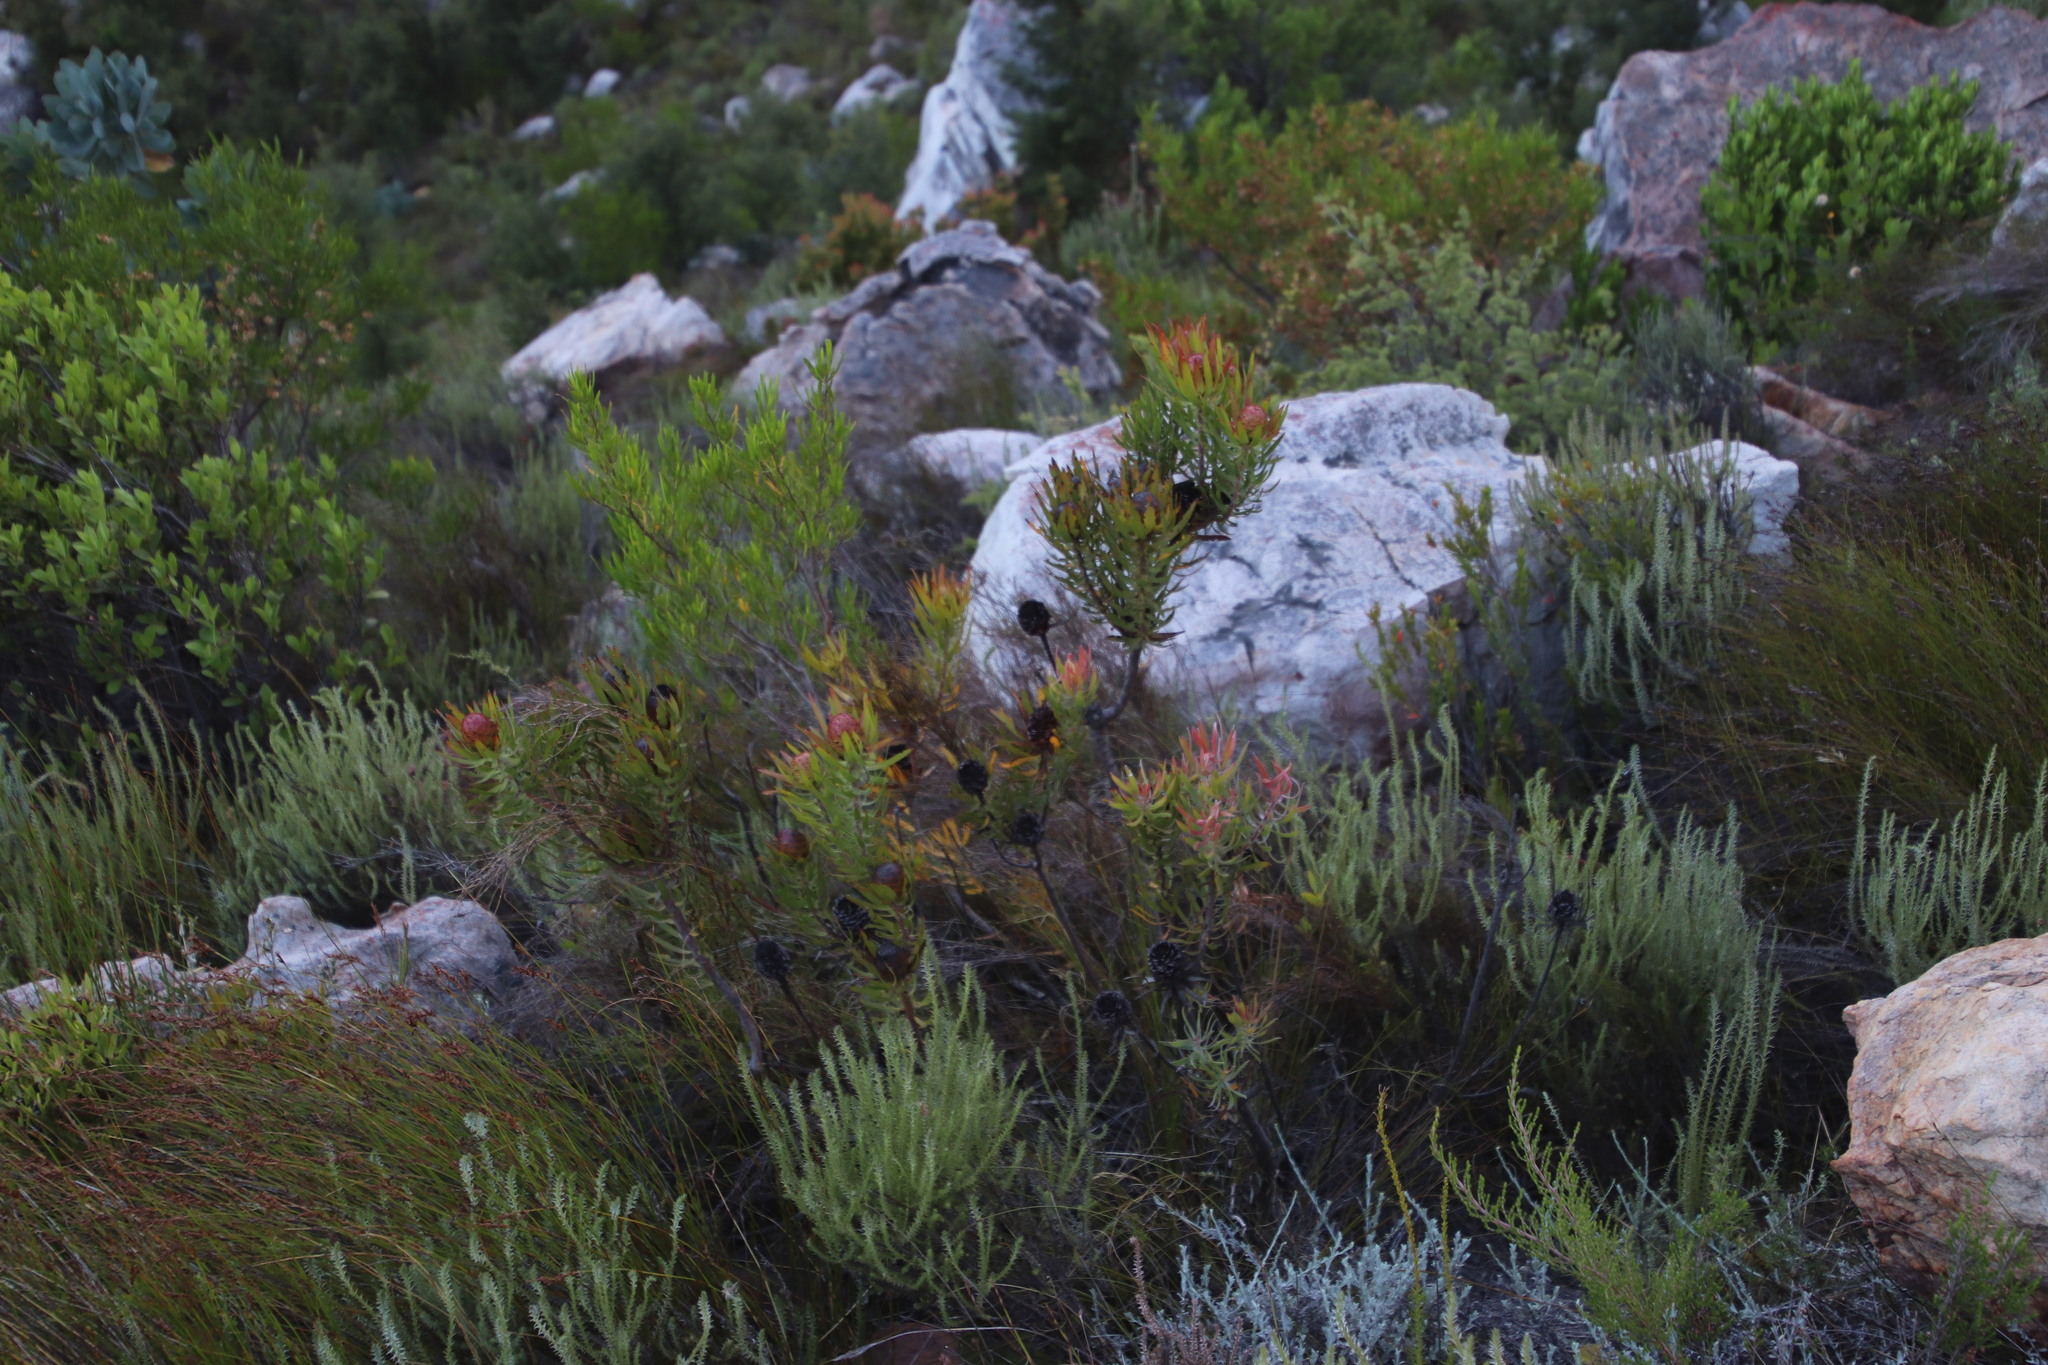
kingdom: Plantae
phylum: Tracheophyta
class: Magnoliopsida
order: Proteales
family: Proteaceae
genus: Leucadendron
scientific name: Leucadendron spissifolium
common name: Spear-leaf conebush
